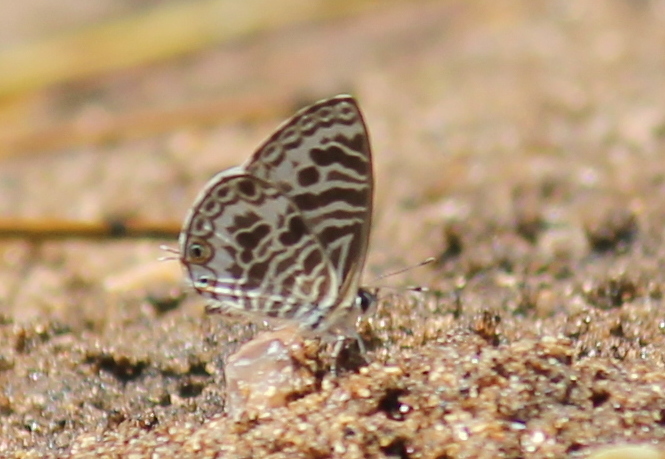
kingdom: Animalia
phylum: Arthropoda
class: Insecta
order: Lepidoptera
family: Lycaenidae
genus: Leptotes
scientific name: Leptotes plinius
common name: Zebra blue
